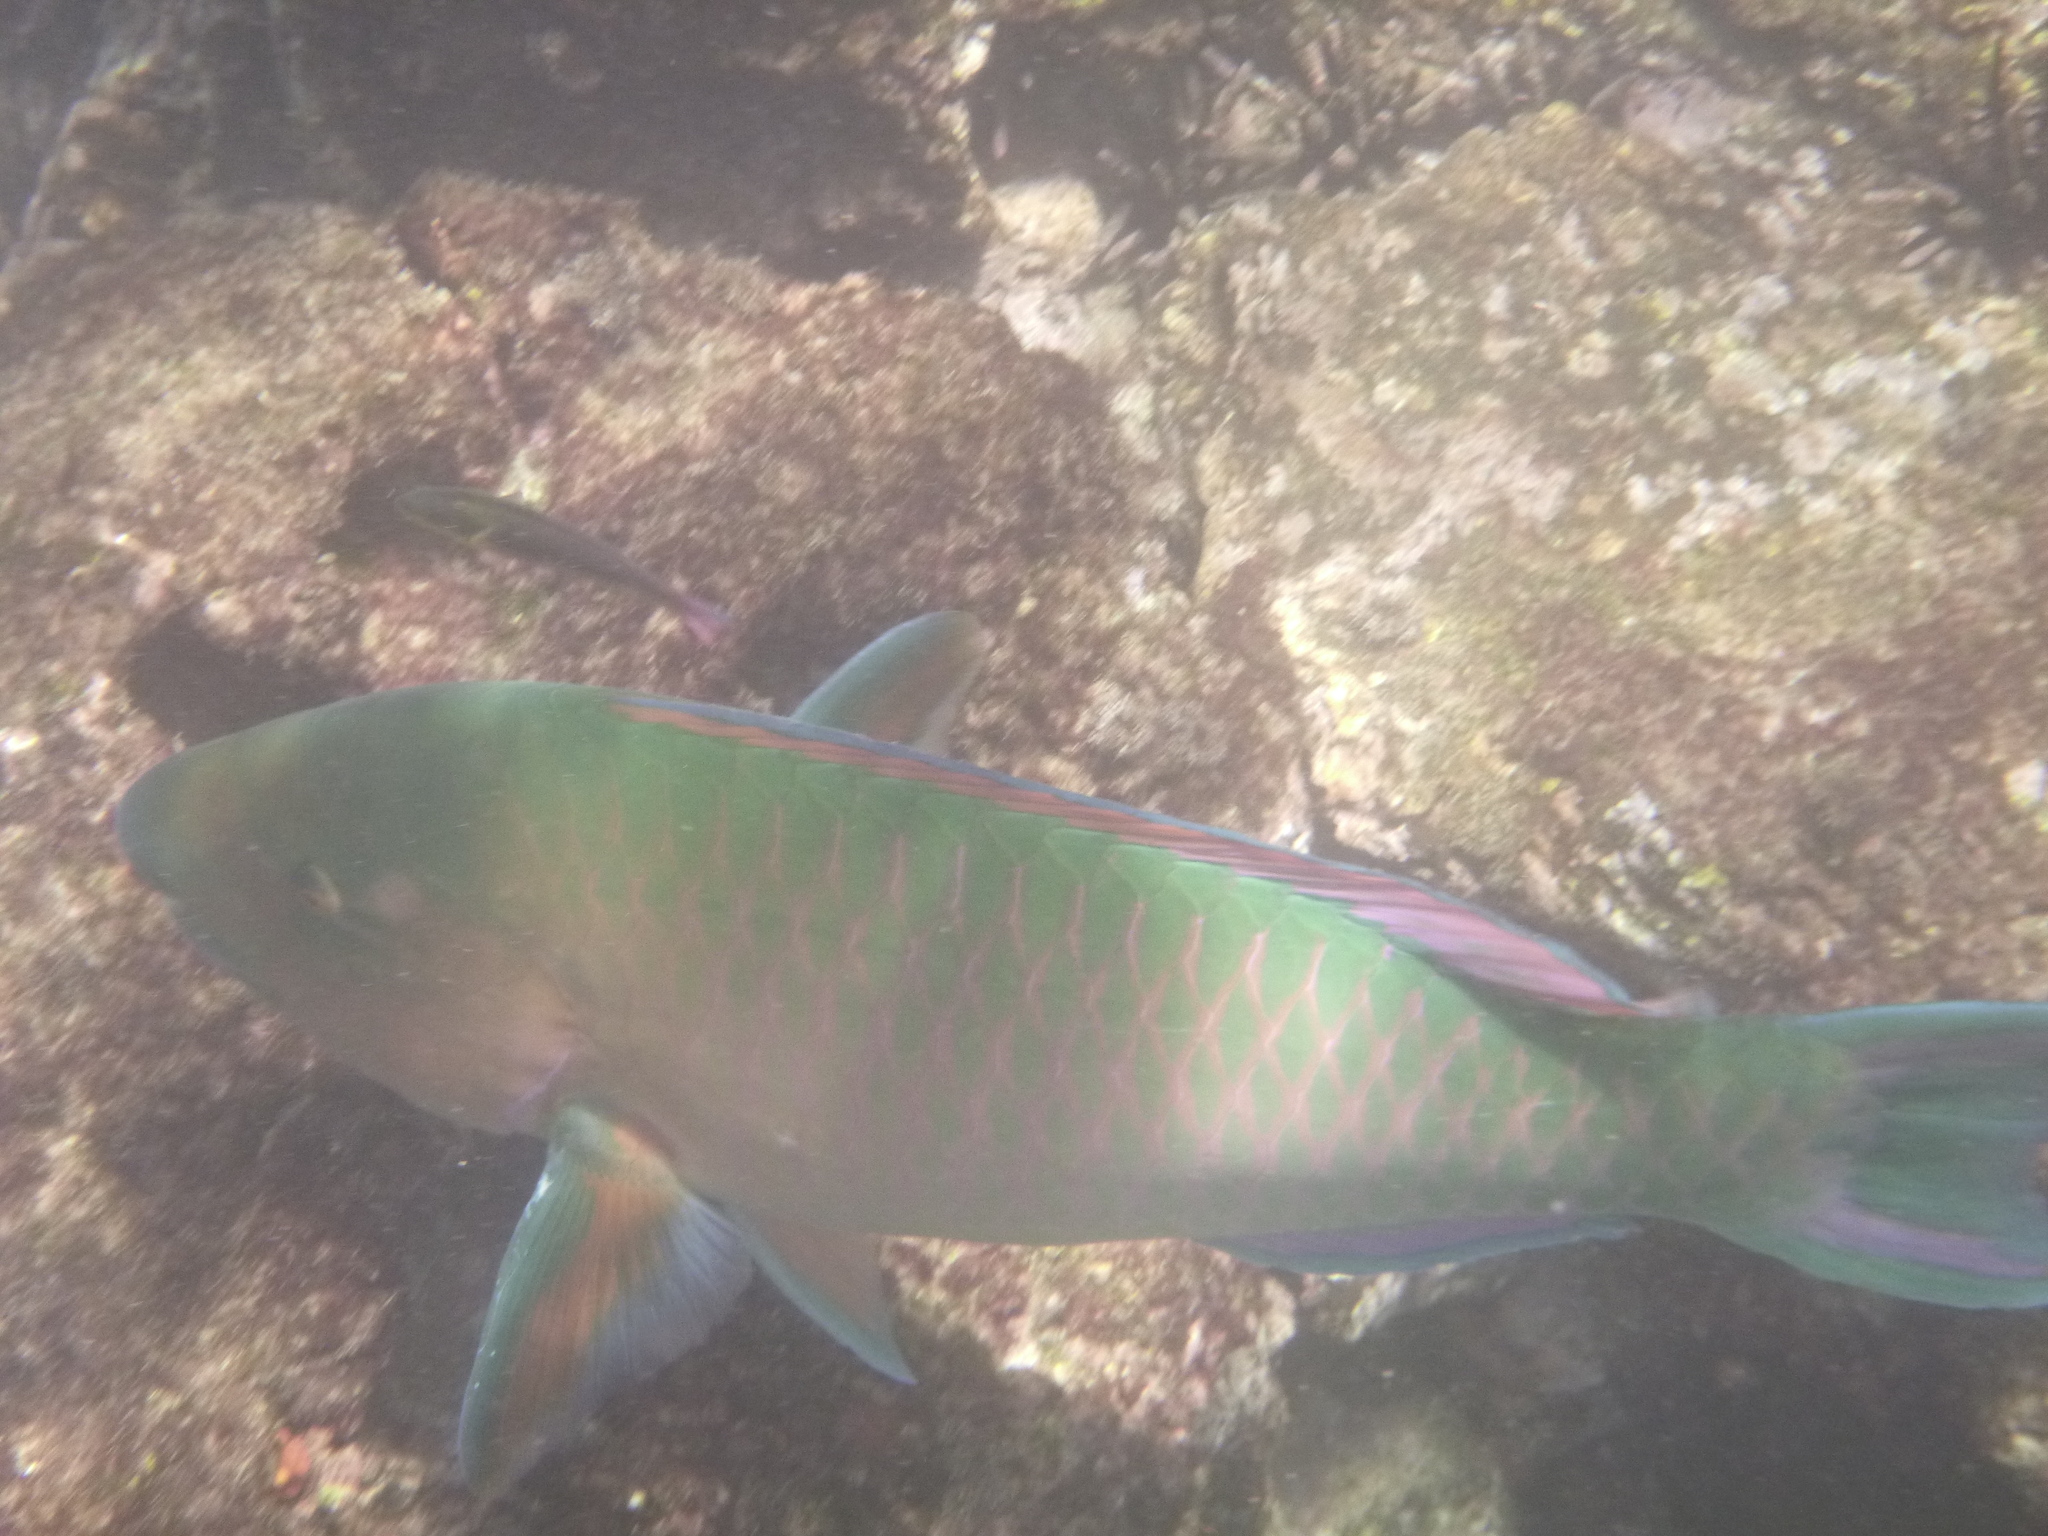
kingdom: Animalia
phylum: Chordata
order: Perciformes
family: Scaridae
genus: Scarus
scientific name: Scarus ghobban
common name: Blue-barred parrotfish
